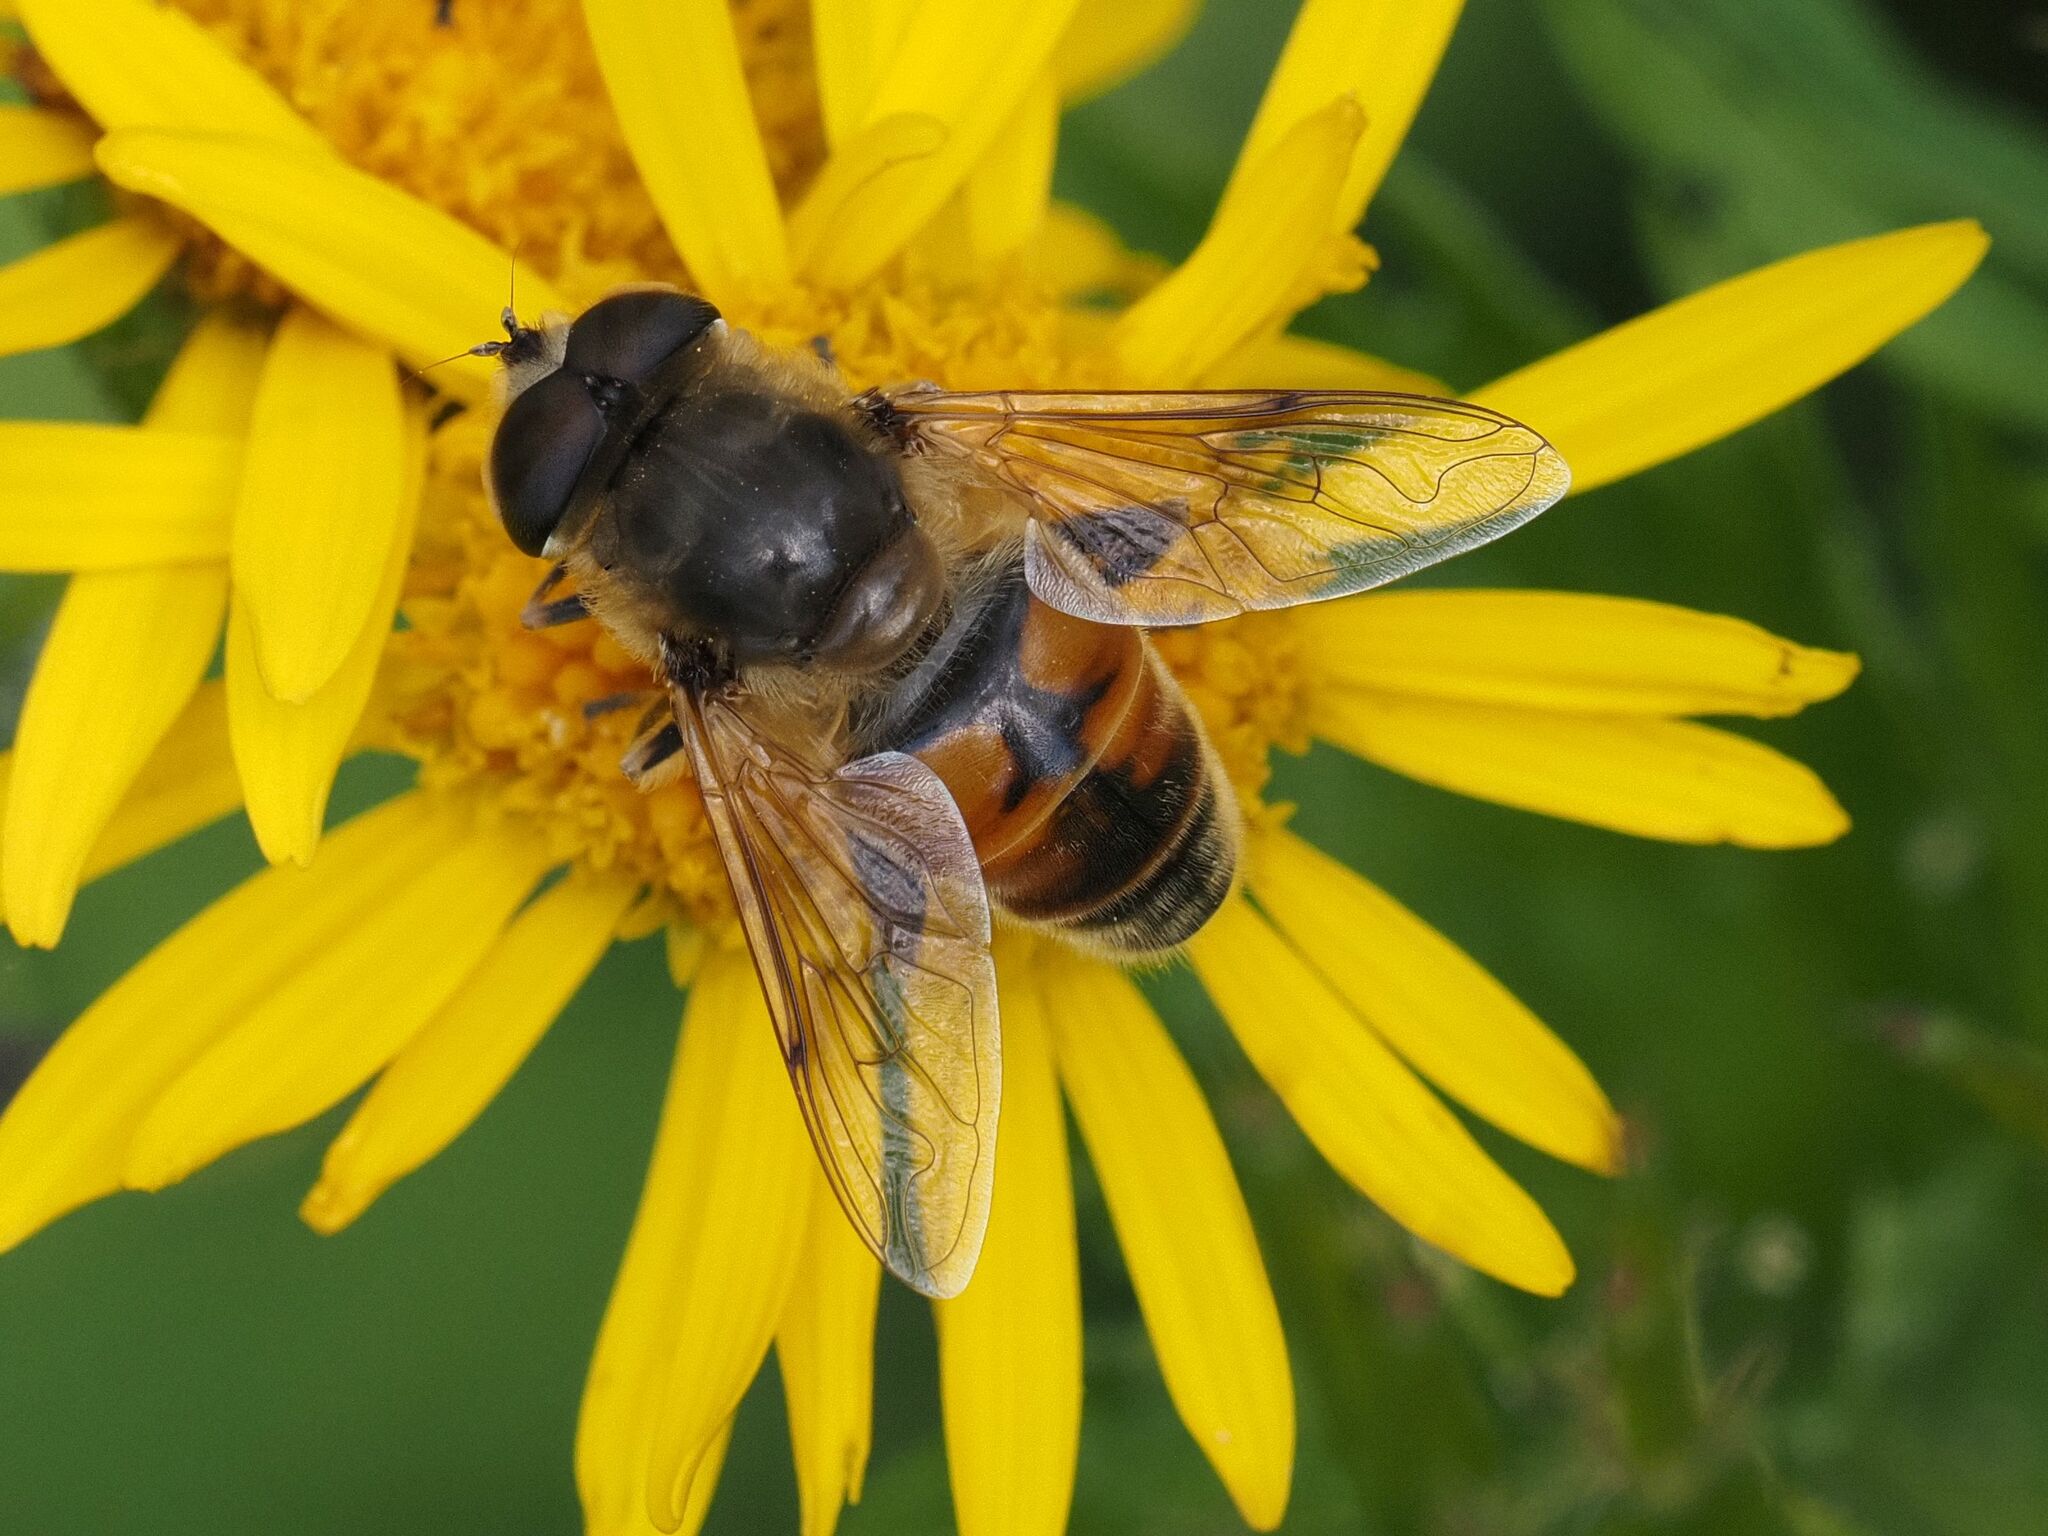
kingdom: Animalia
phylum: Arthropoda
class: Insecta
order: Diptera
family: Syrphidae
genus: Eristalis
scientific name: Eristalis tenax
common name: Drone fly
